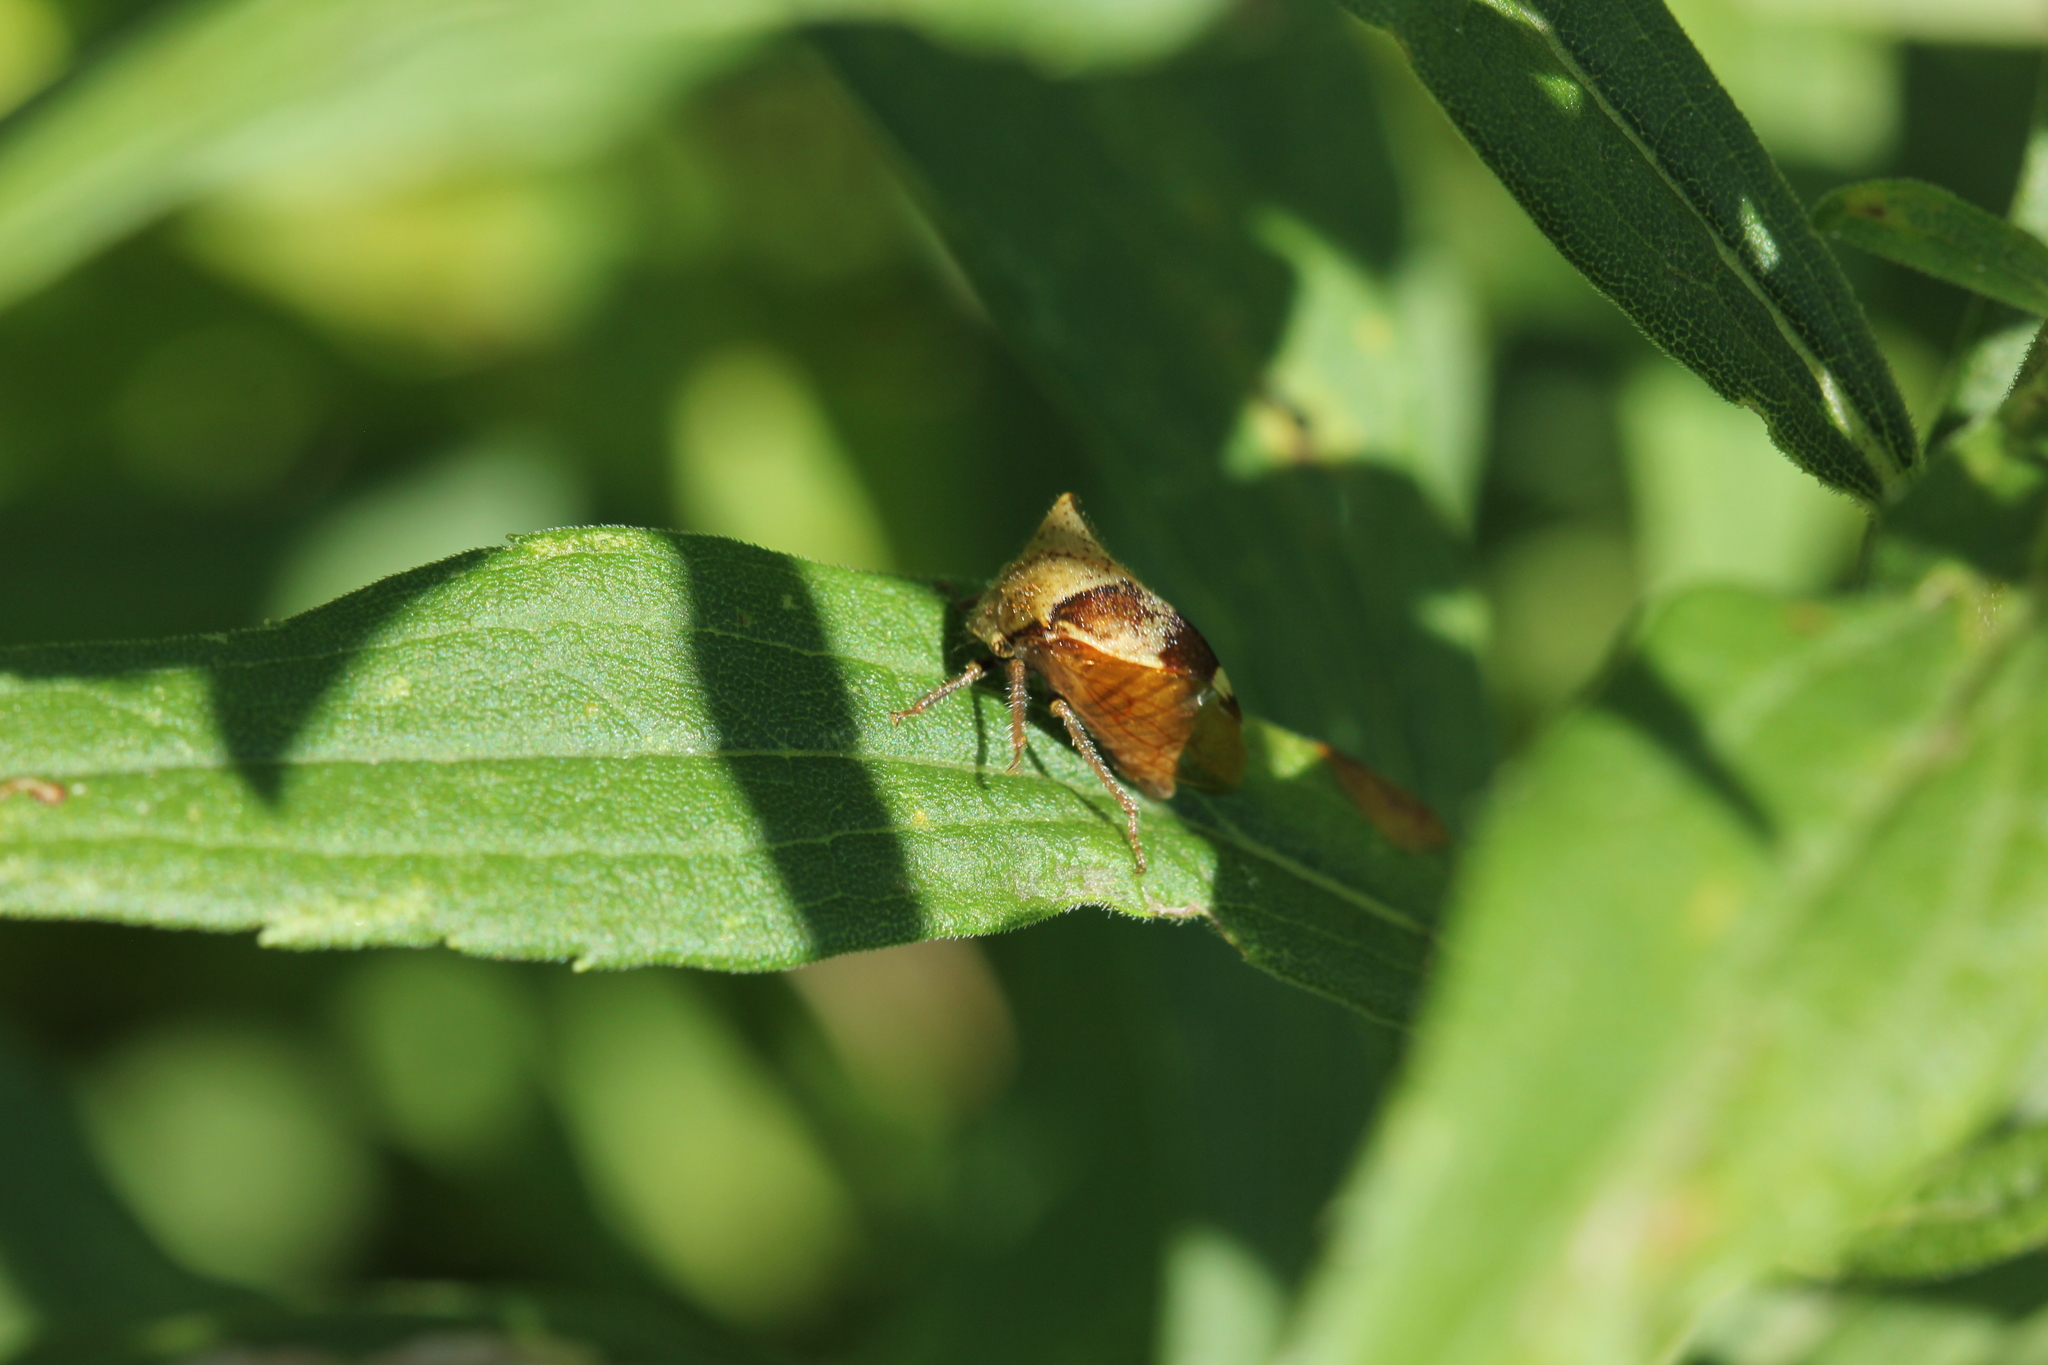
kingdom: Animalia
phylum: Arthropoda
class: Insecta
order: Hemiptera
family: Membracidae
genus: Stictocephala
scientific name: Stictocephala diceros
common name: Two-horned treehopper
